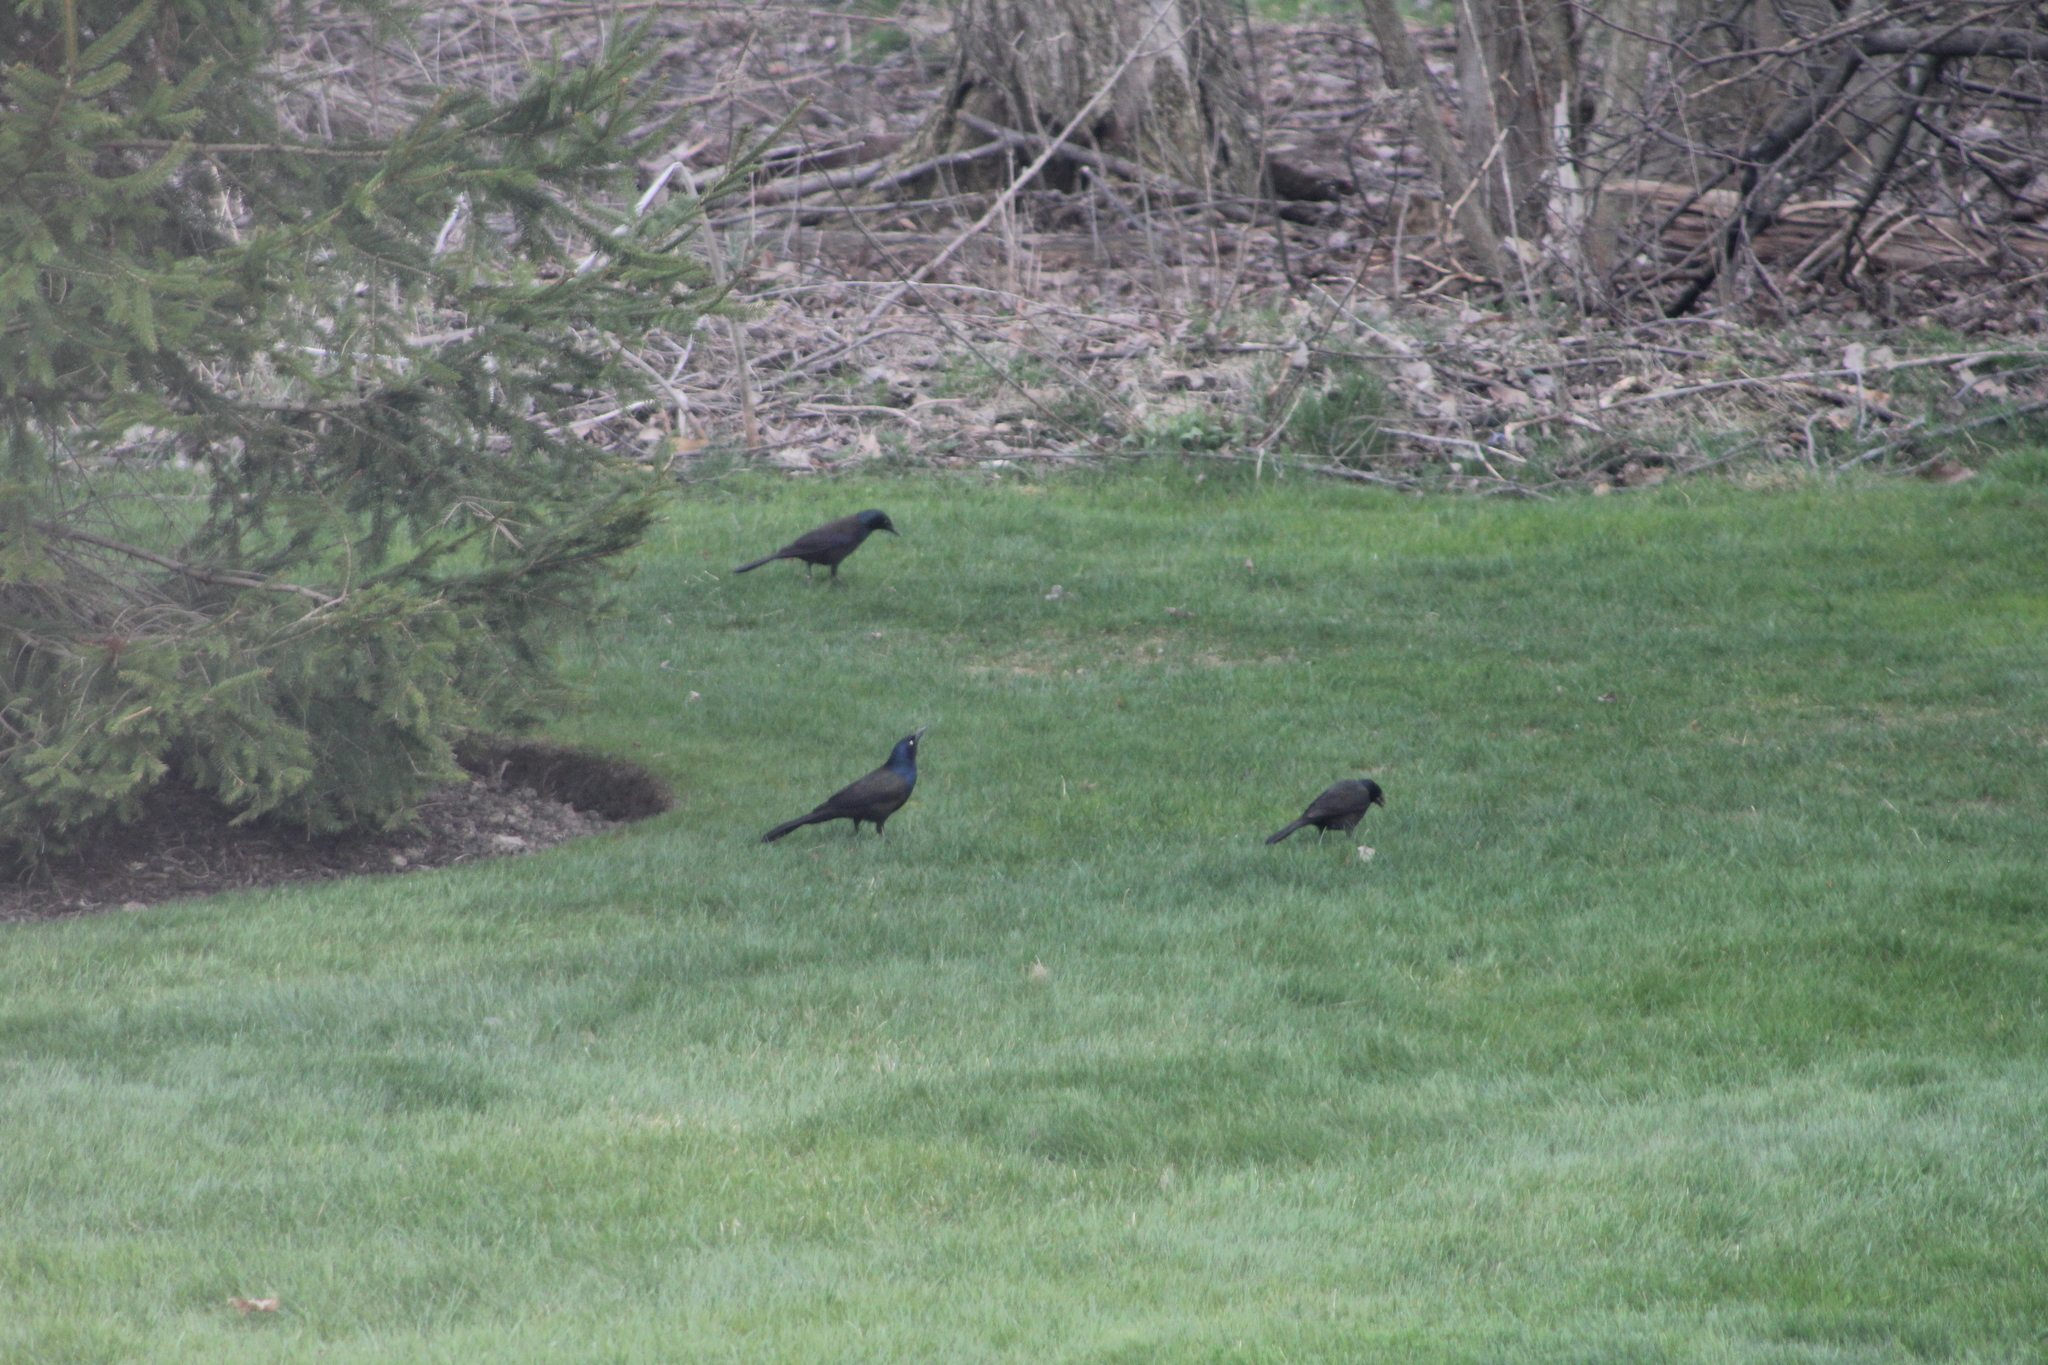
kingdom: Animalia
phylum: Chordata
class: Aves
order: Passeriformes
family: Icteridae
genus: Quiscalus
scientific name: Quiscalus quiscula
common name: Common grackle
